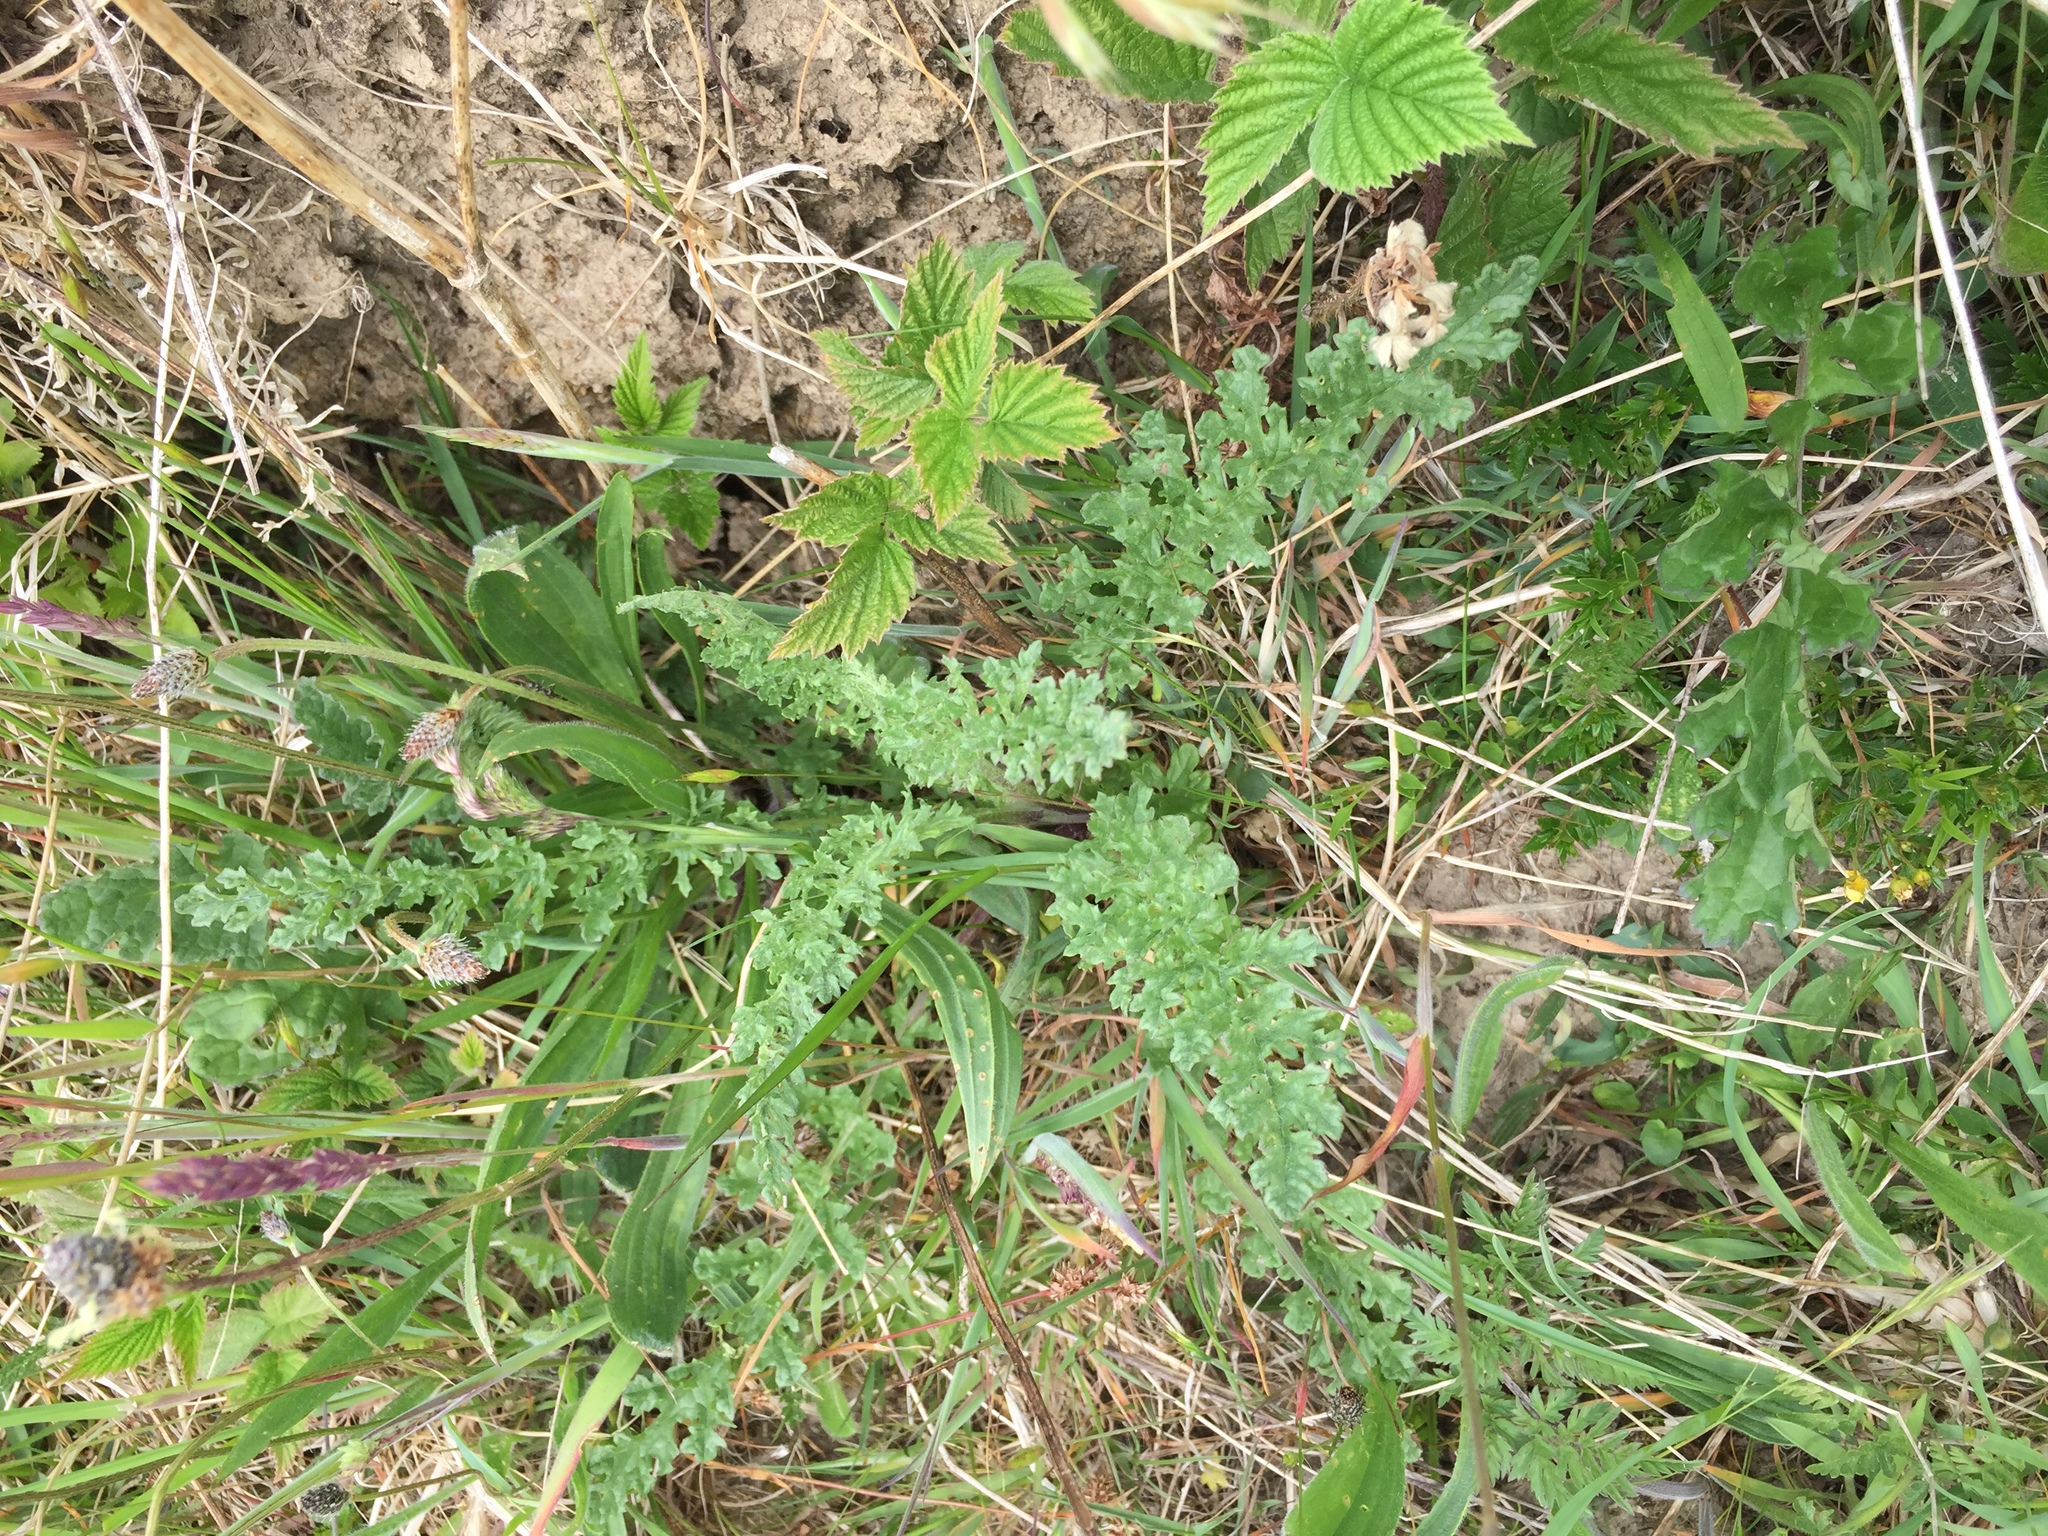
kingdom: Plantae
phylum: Tracheophyta
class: Magnoliopsida
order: Asterales
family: Asteraceae
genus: Jacobaea
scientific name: Jacobaea vulgaris
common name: Stinking willie
